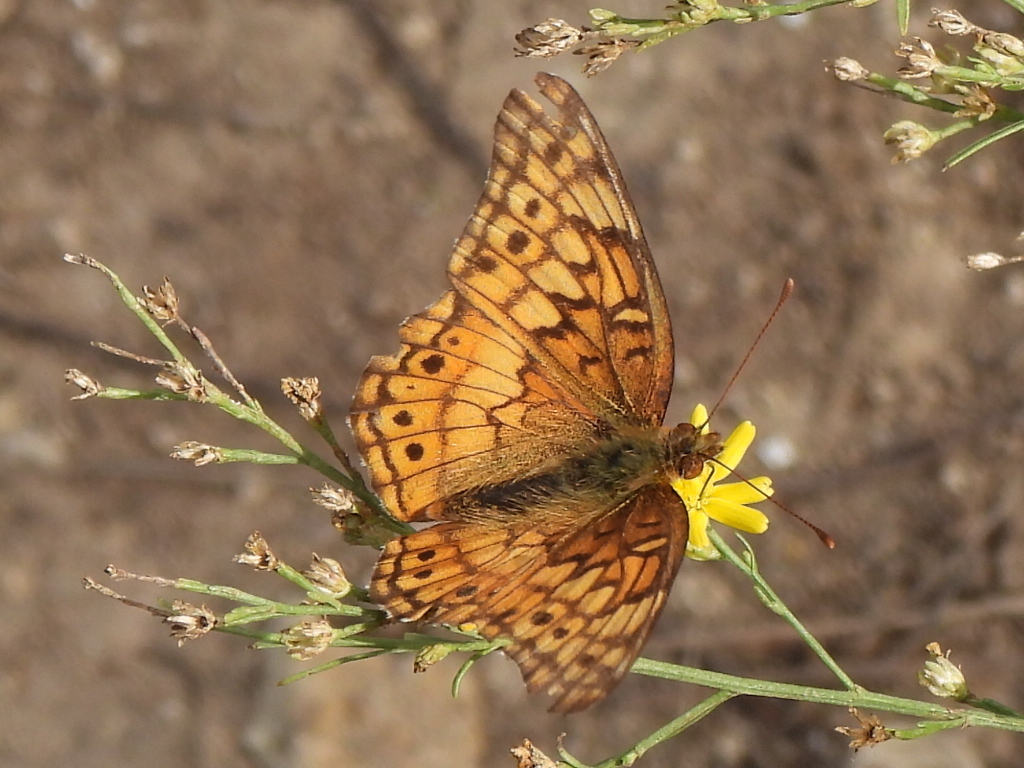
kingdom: Animalia
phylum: Arthropoda
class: Insecta
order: Lepidoptera
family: Nymphalidae
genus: Euptoieta
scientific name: Euptoieta claudia
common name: Variegated fritillary
